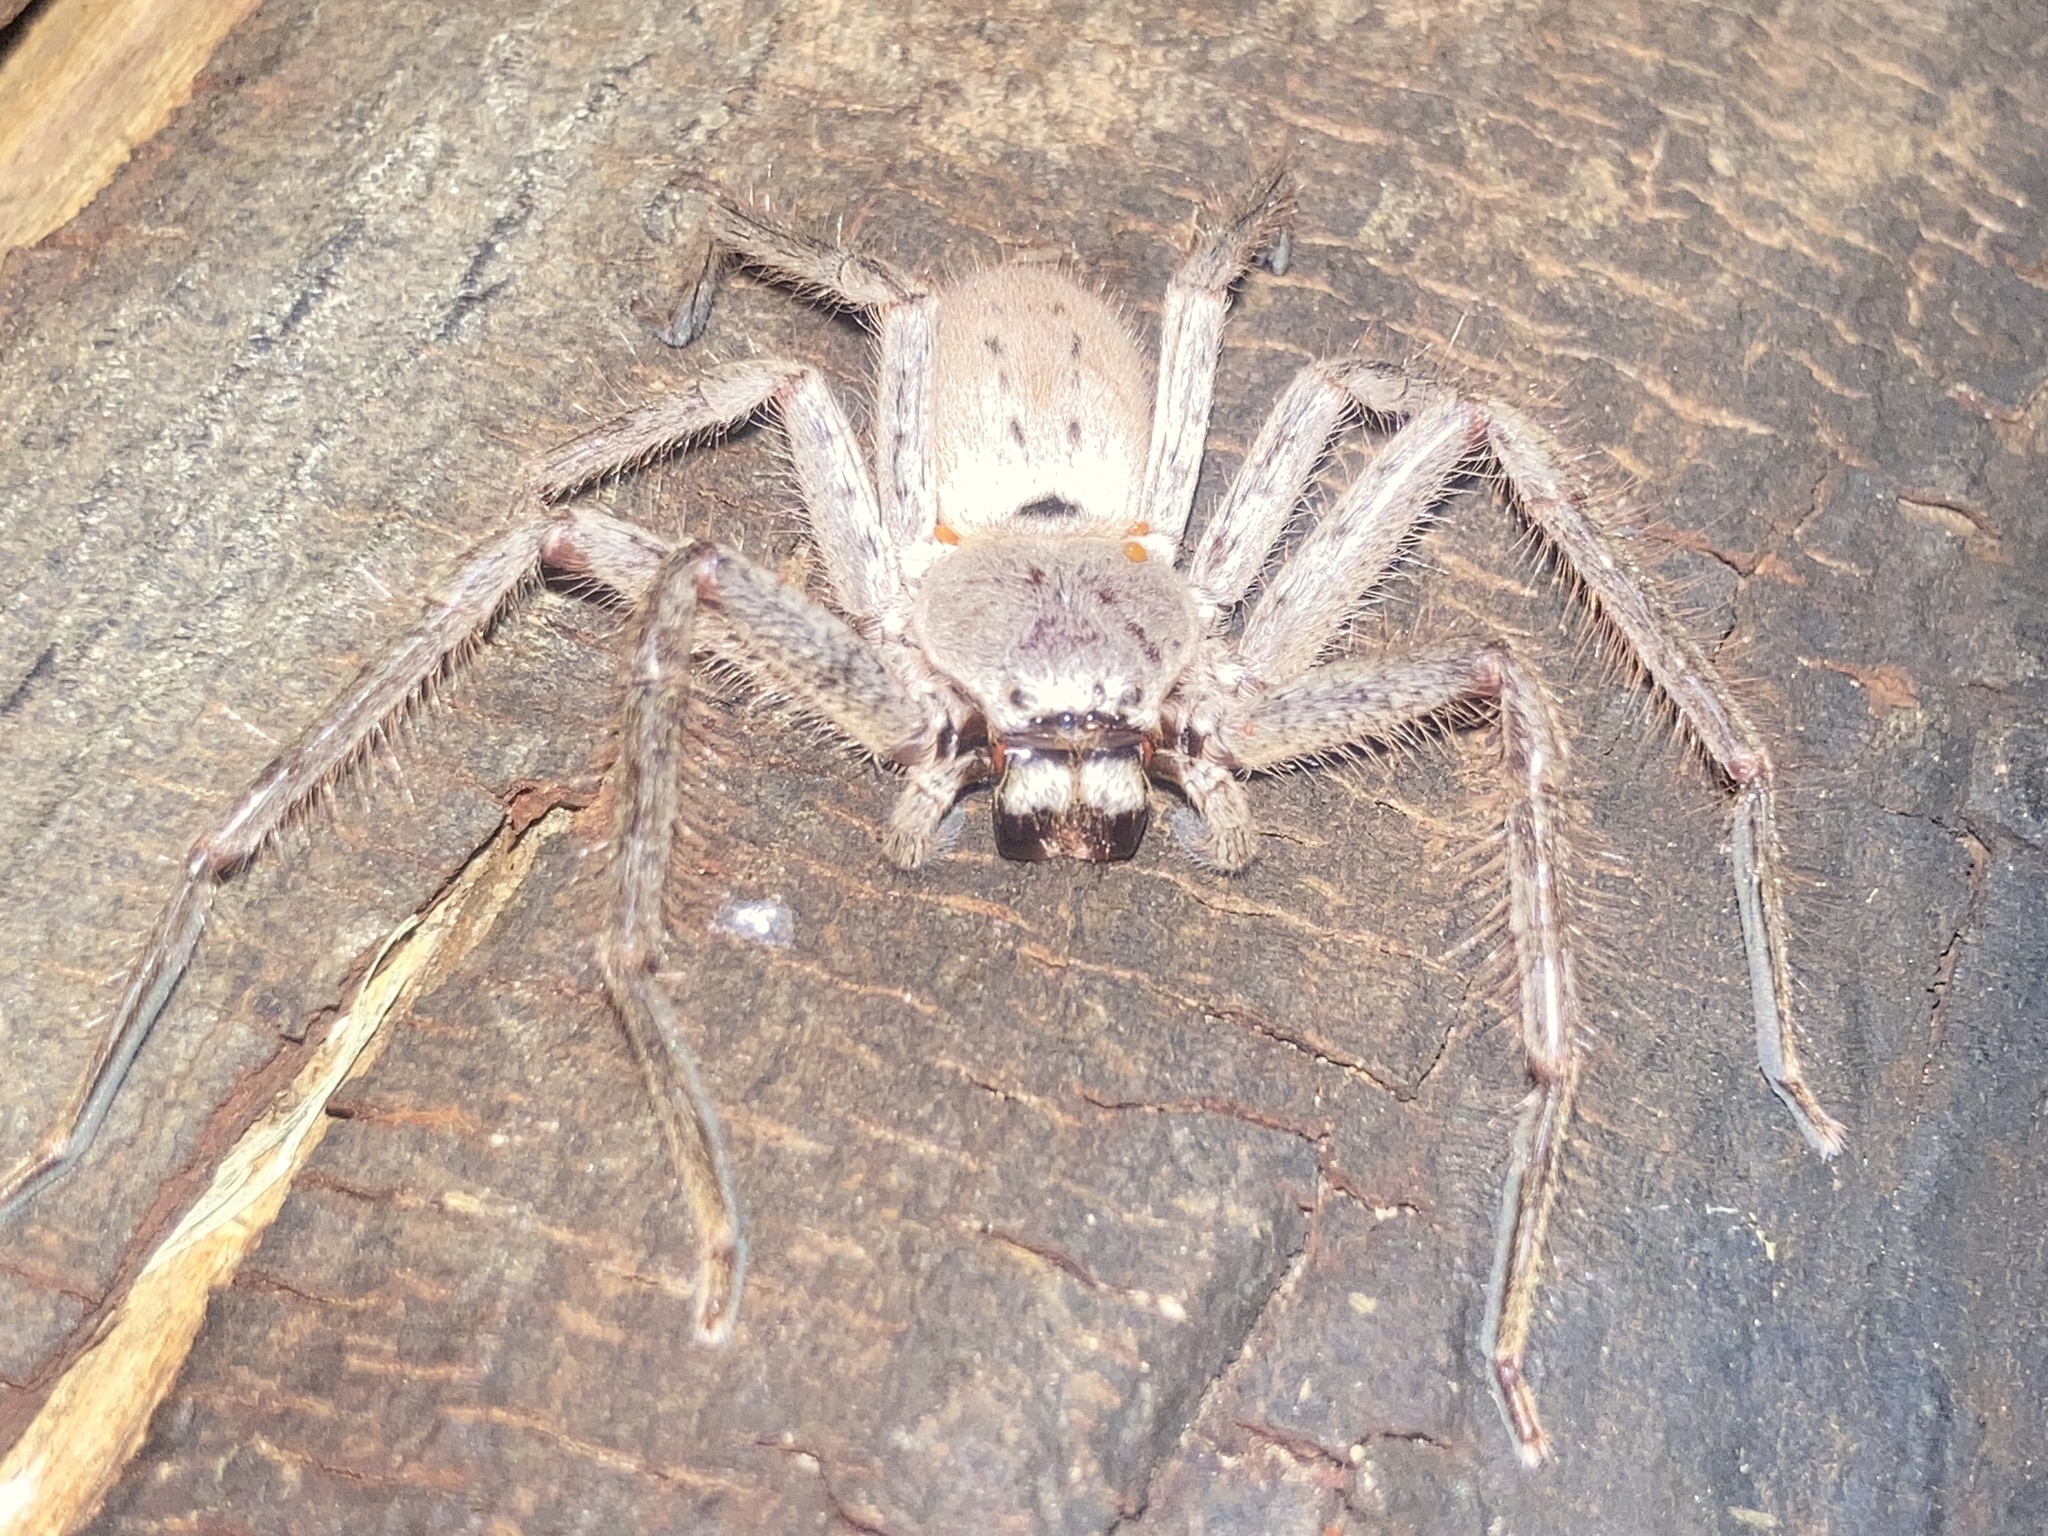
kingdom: Animalia
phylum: Arthropoda
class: Arachnida
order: Araneae
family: Sparassidae
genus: Isopeda
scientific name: Isopeda villosa
